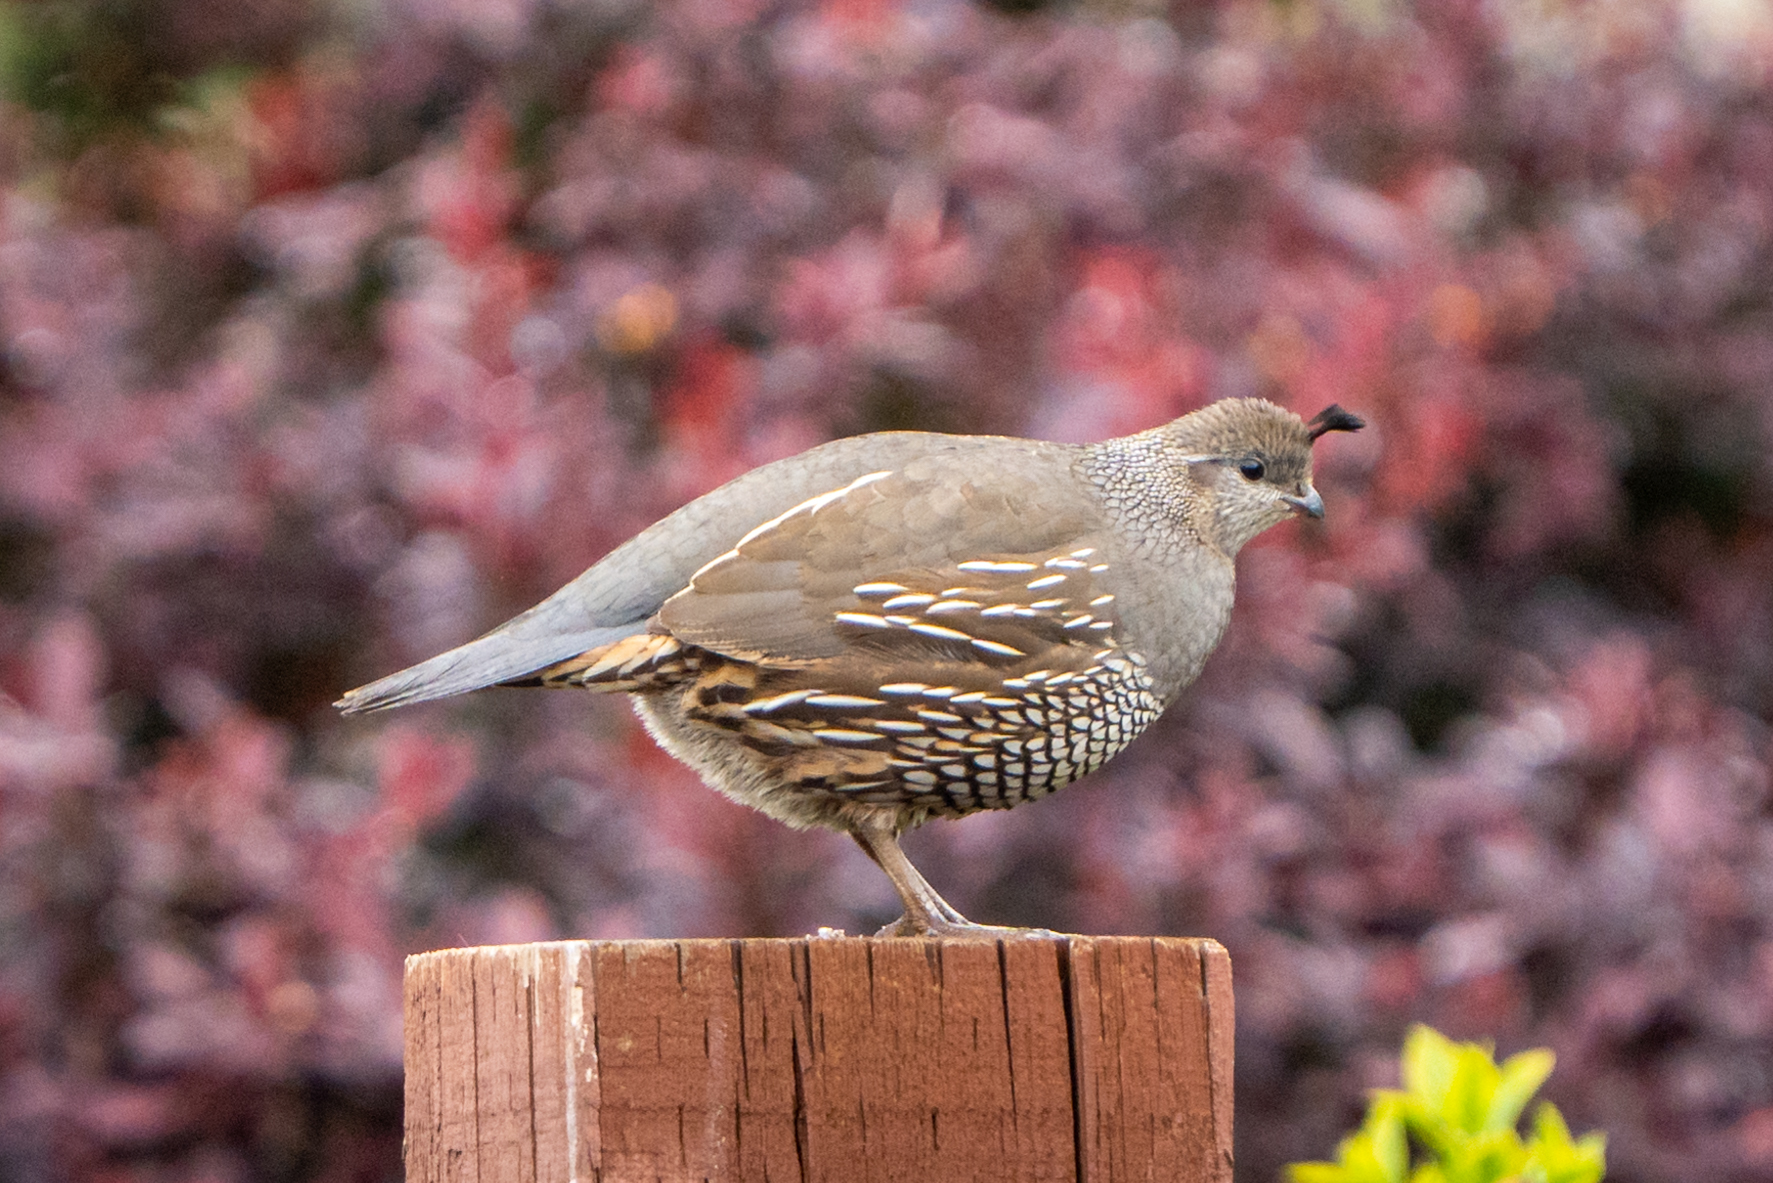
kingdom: Animalia
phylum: Chordata
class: Aves
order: Galliformes
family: Odontophoridae
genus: Callipepla
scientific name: Callipepla californica
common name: California quail
